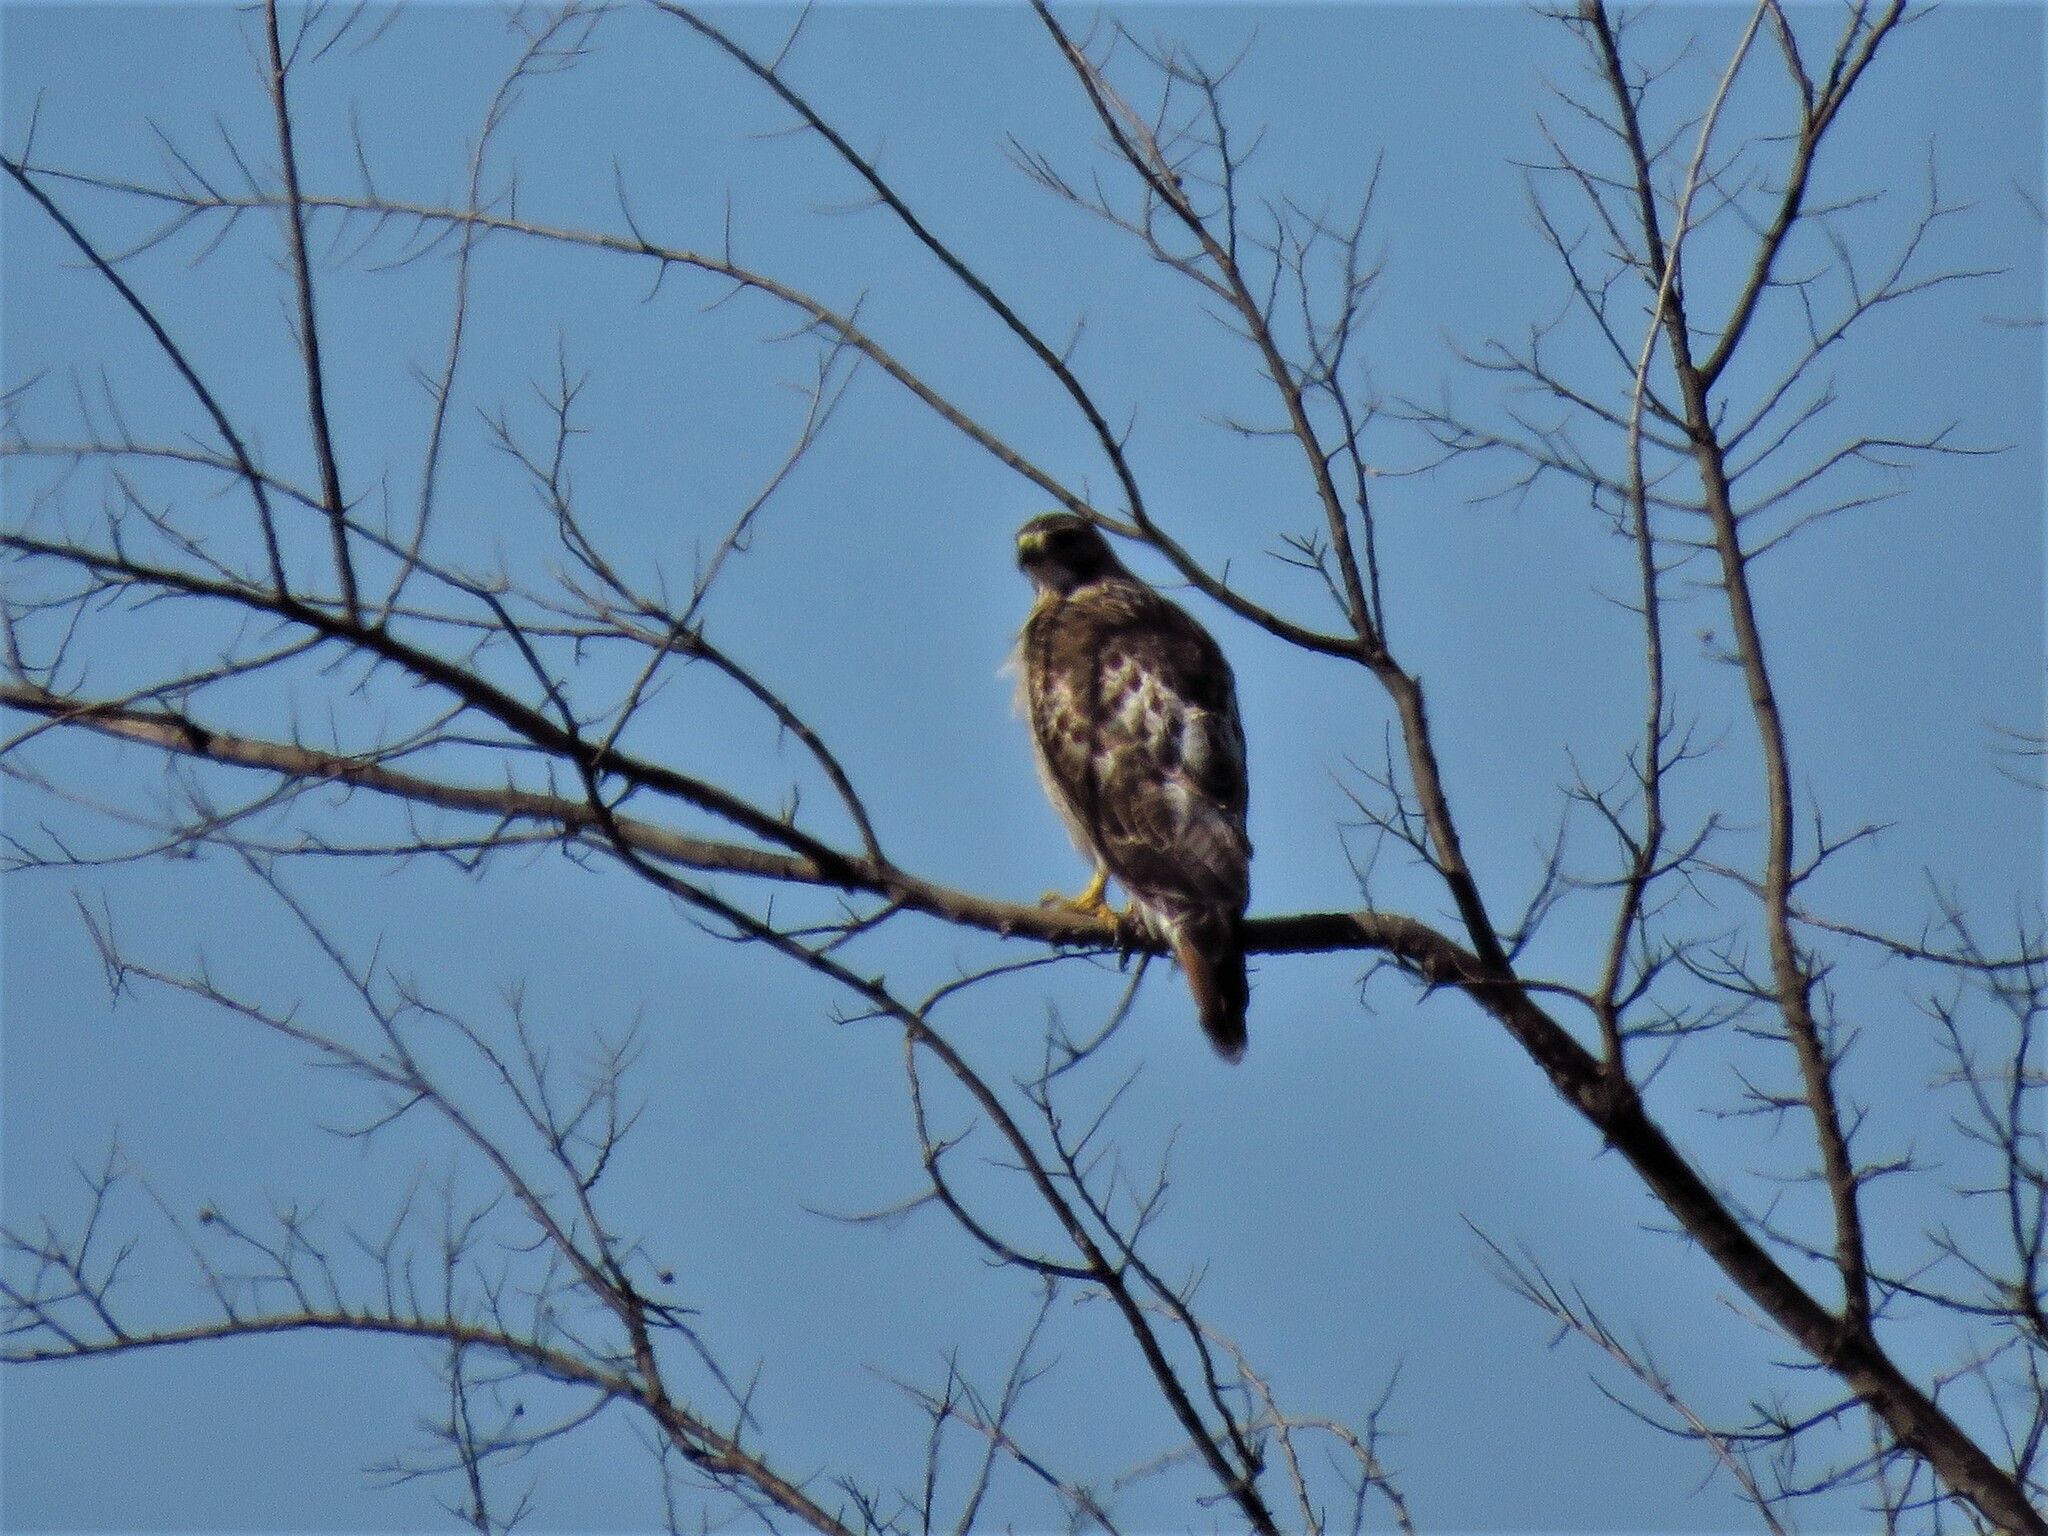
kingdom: Animalia
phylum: Chordata
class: Aves
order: Accipitriformes
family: Accipitridae
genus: Buteo
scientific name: Buteo jamaicensis
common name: Red-tailed hawk
